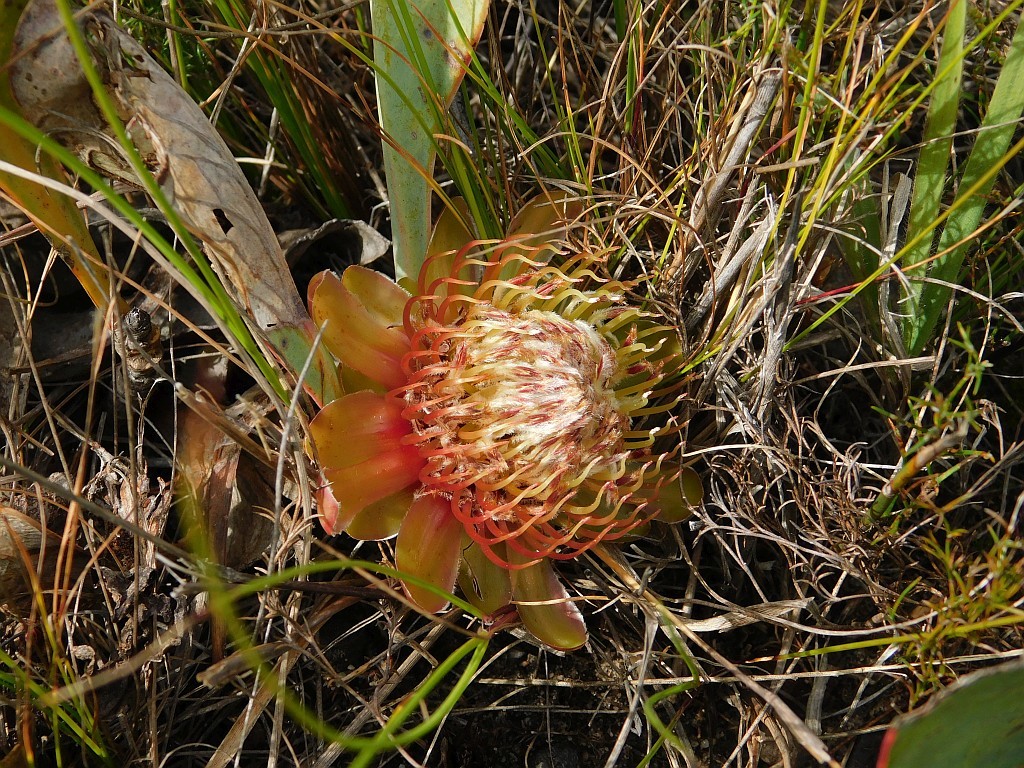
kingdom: Plantae
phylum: Tracheophyta
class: Magnoliopsida
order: Proteales
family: Proteaceae
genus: Protea
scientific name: Protea acaulos
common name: Common ground sugarbush
